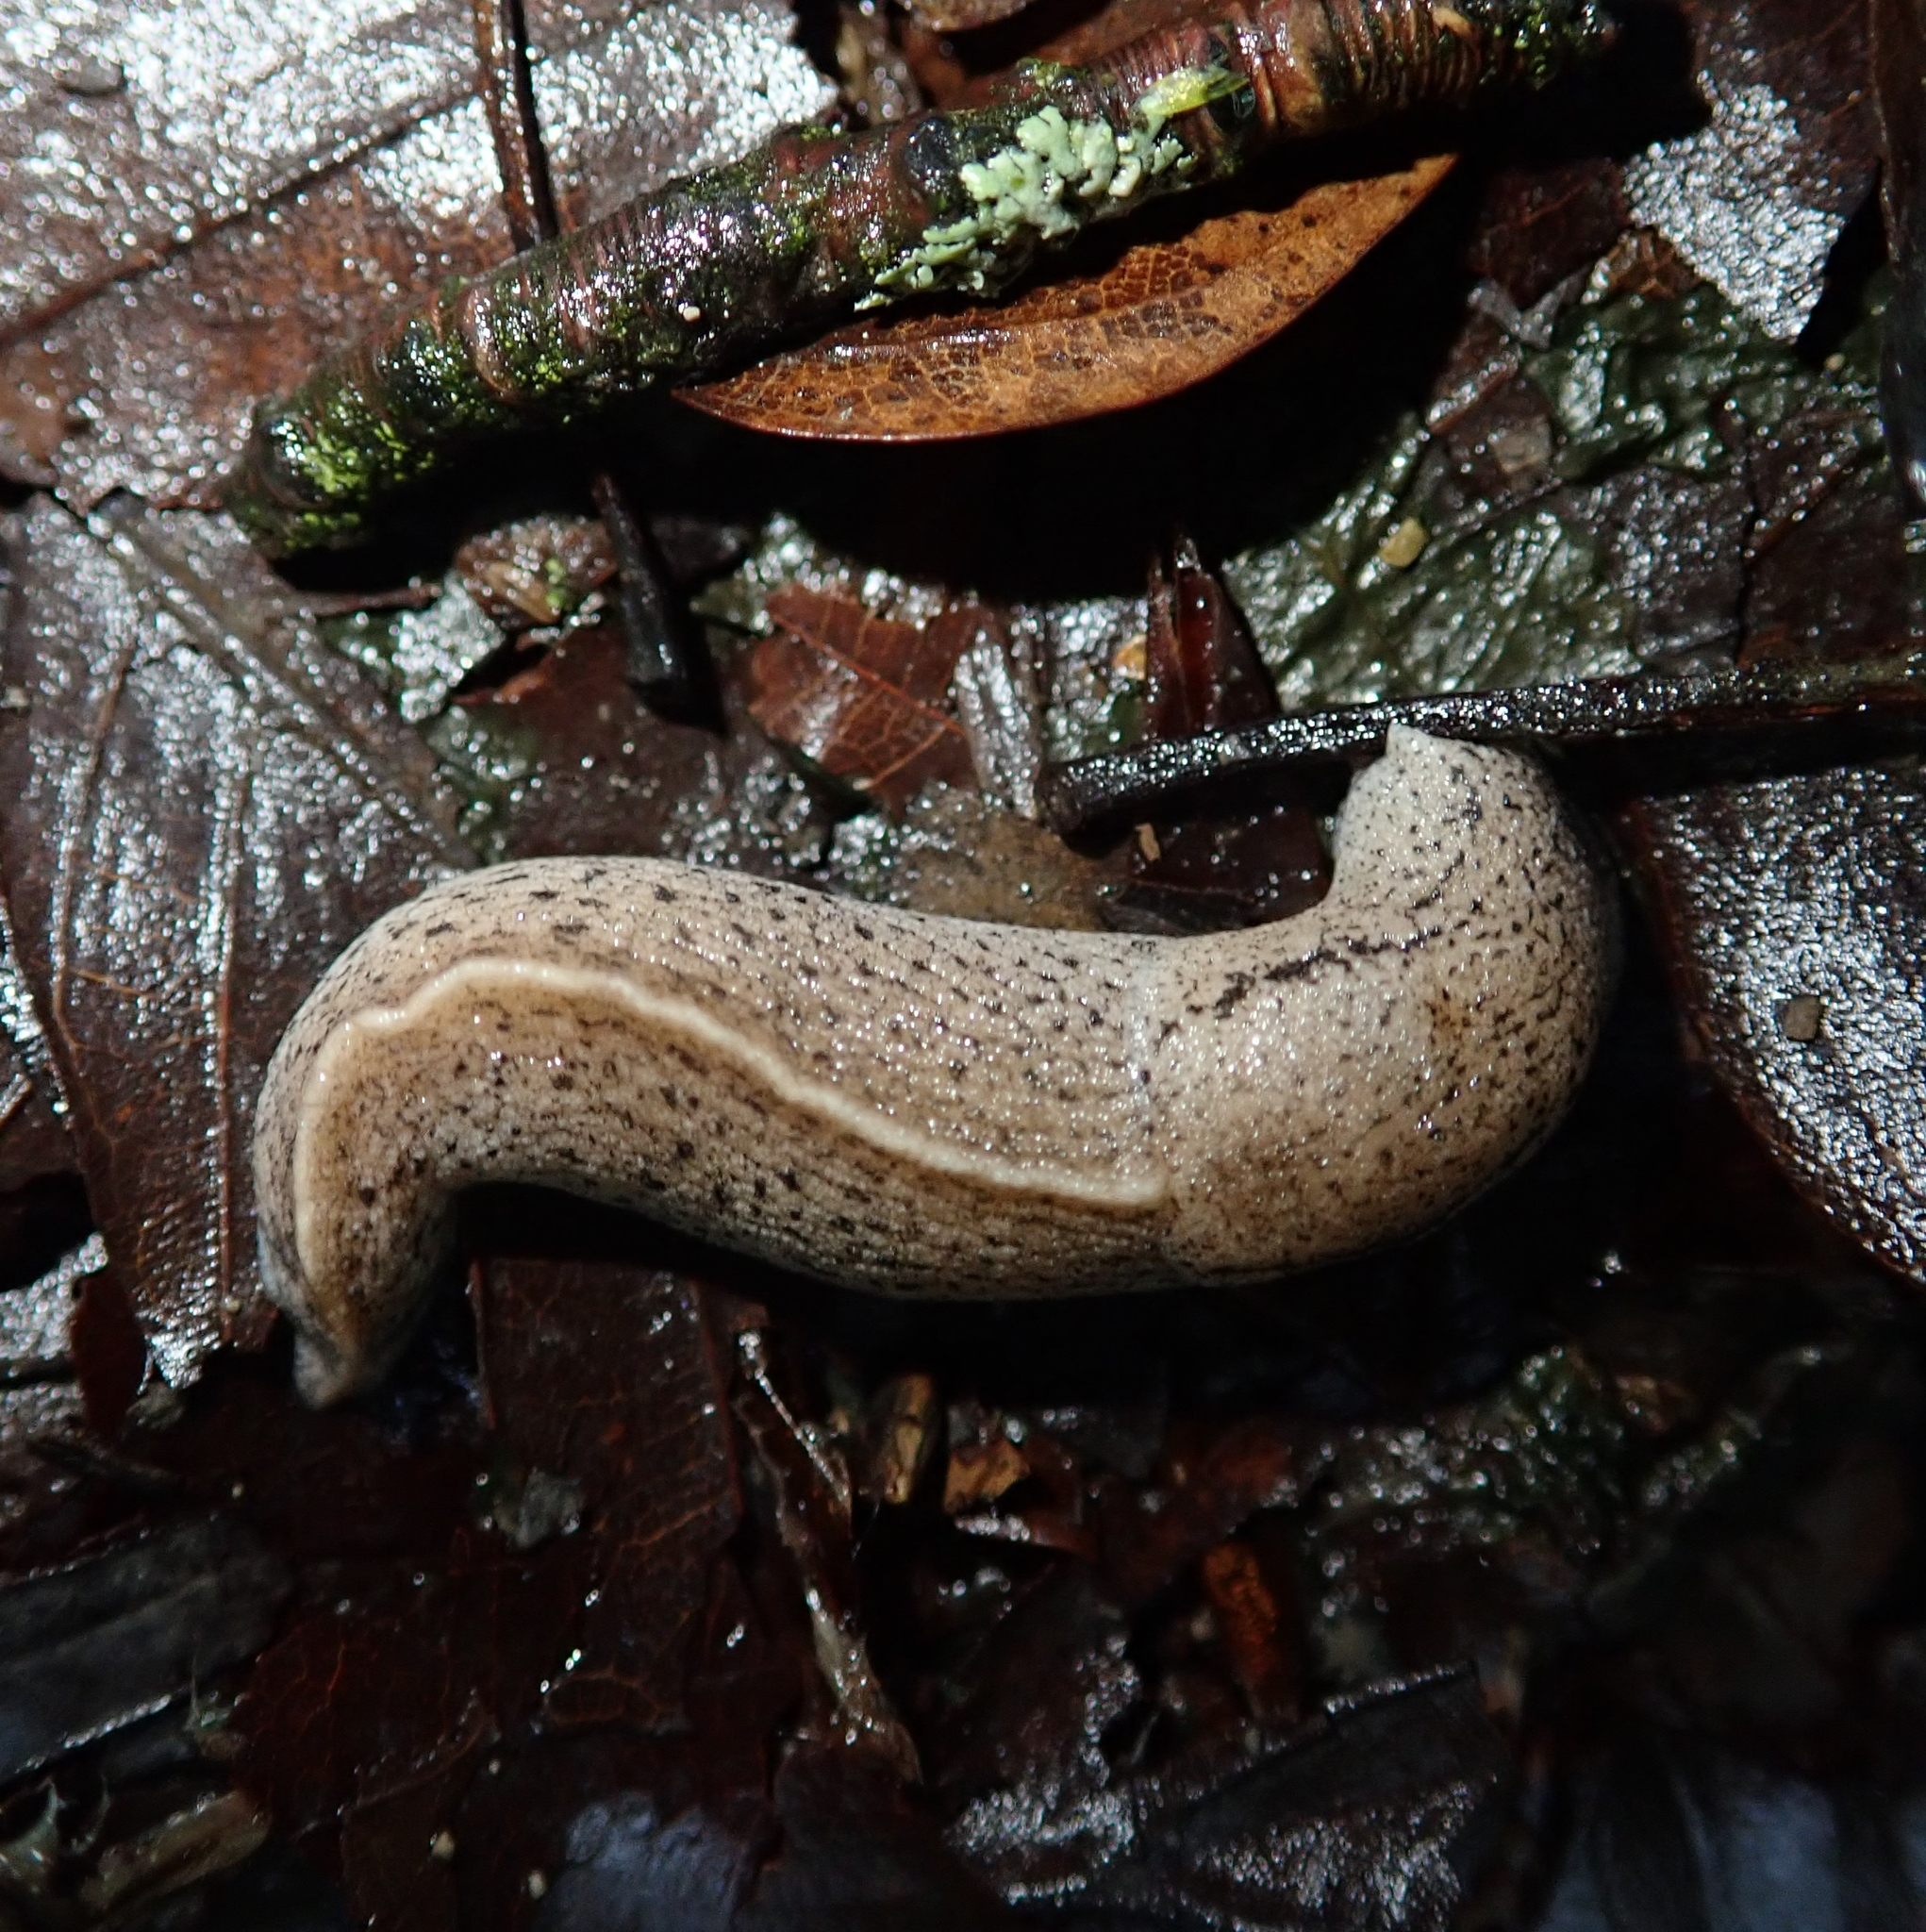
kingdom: Animalia
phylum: Mollusca
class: Gastropoda
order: Stylommatophora
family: Milacidae
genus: Tandonia
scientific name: Tandonia rustica
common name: Bulb-eating slug
